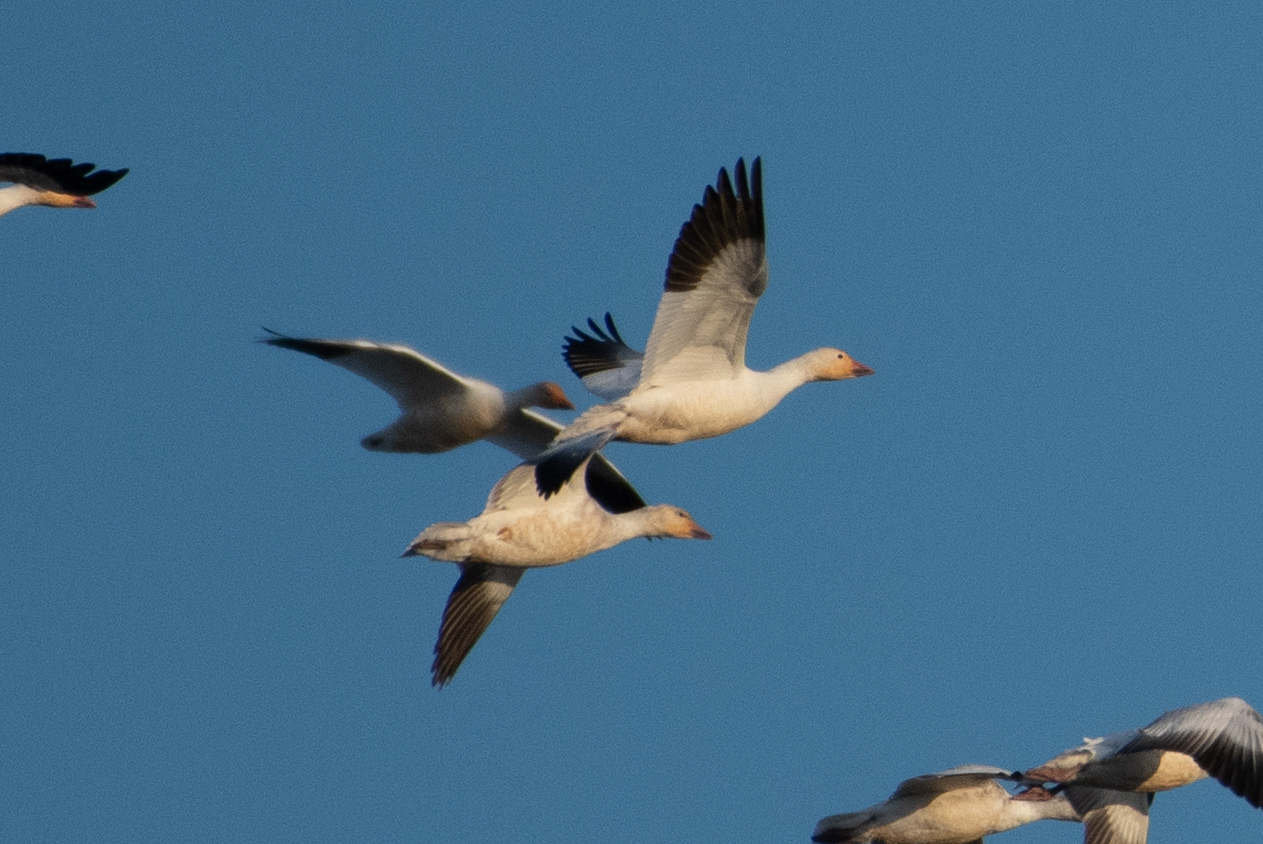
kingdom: Animalia
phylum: Chordata
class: Aves
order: Anseriformes
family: Anatidae
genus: Anser
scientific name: Anser caerulescens
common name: Snow goose
